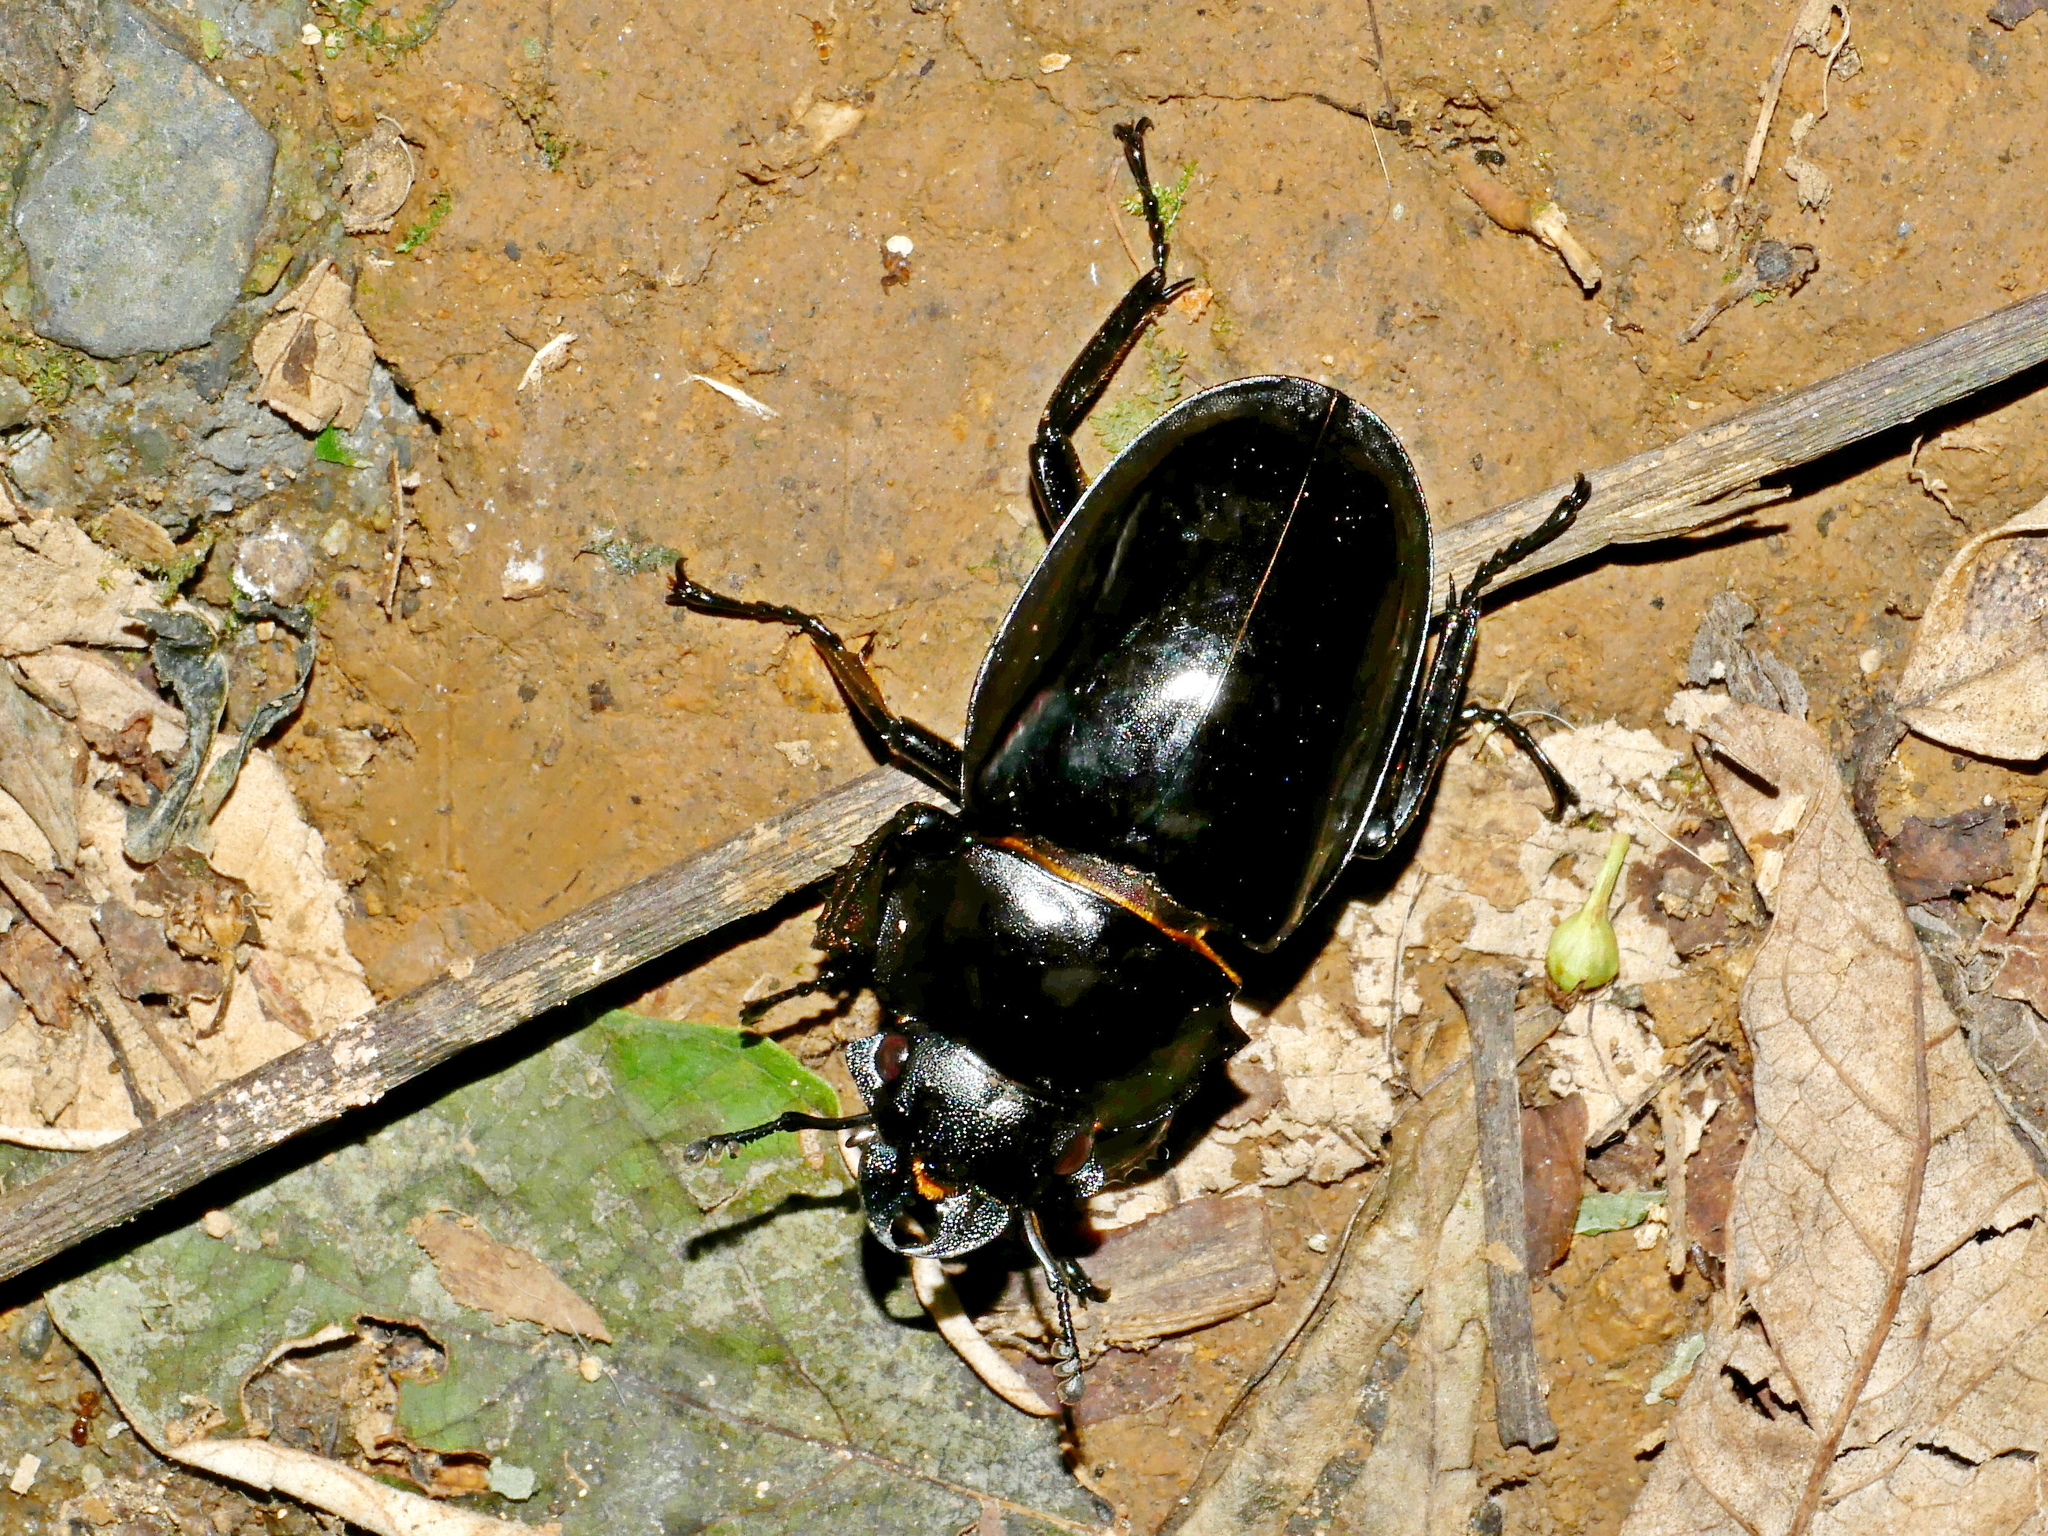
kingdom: Animalia
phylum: Arthropoda
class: Insecta
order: Coleoptera
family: Lucanidae
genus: Odontolabis
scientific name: Odontolabis siva
